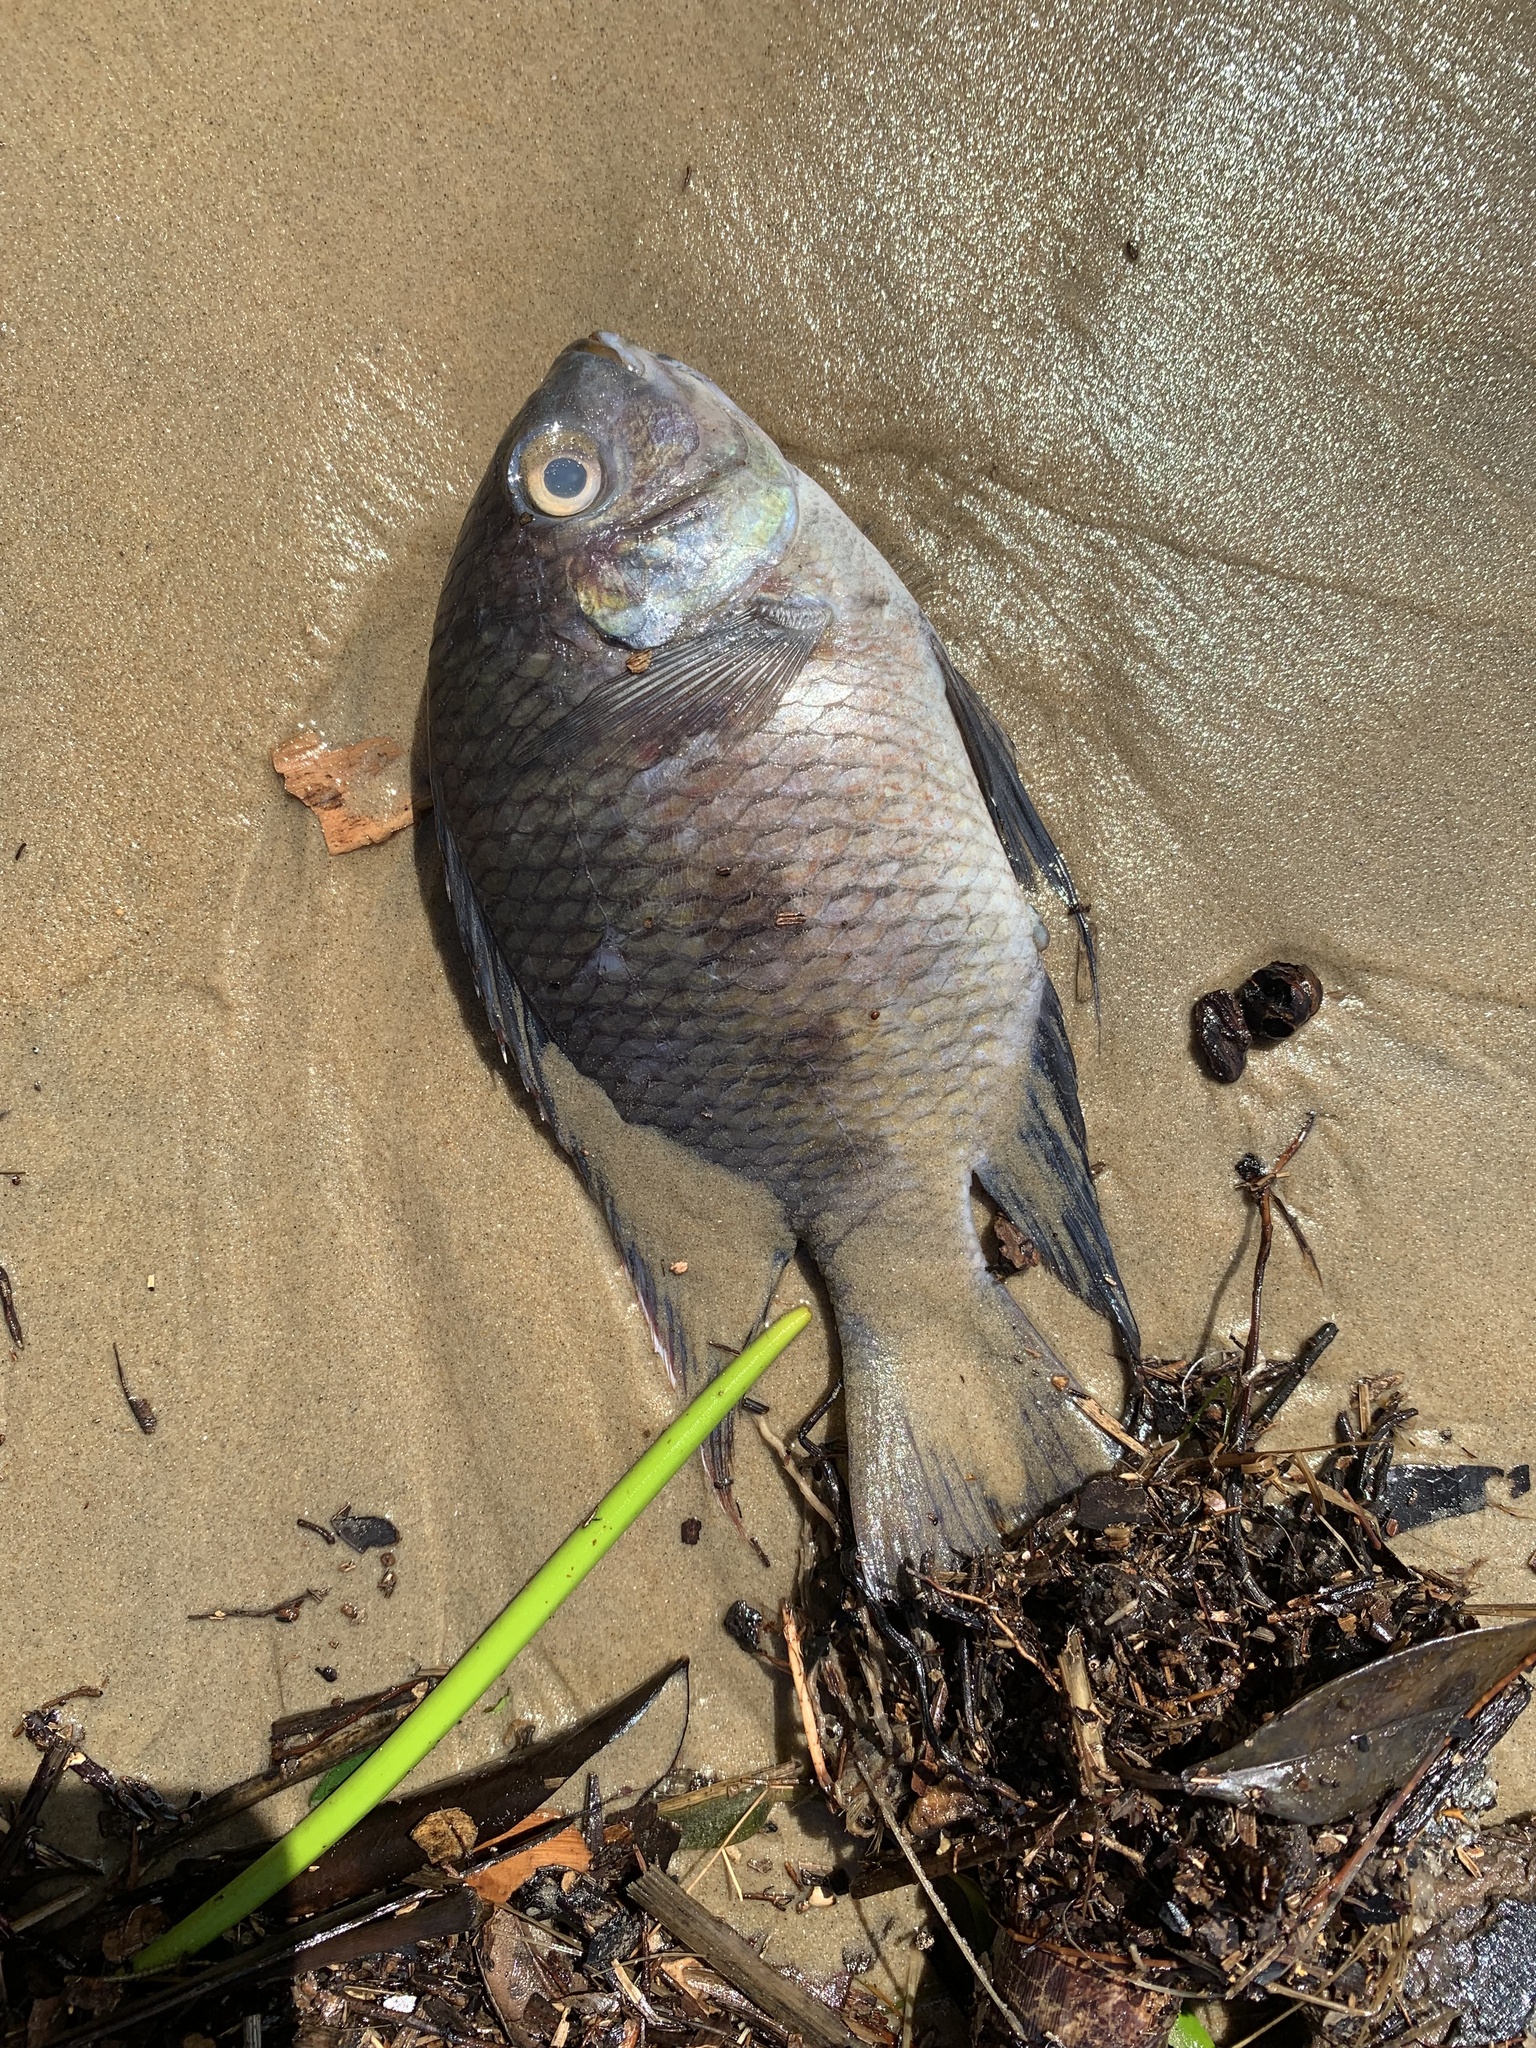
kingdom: Animalia
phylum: Chordata
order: Perciformes
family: Cichlidae
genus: Pelmatolapia
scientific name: Pelmatolapia mariae
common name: Spotted tilapia
